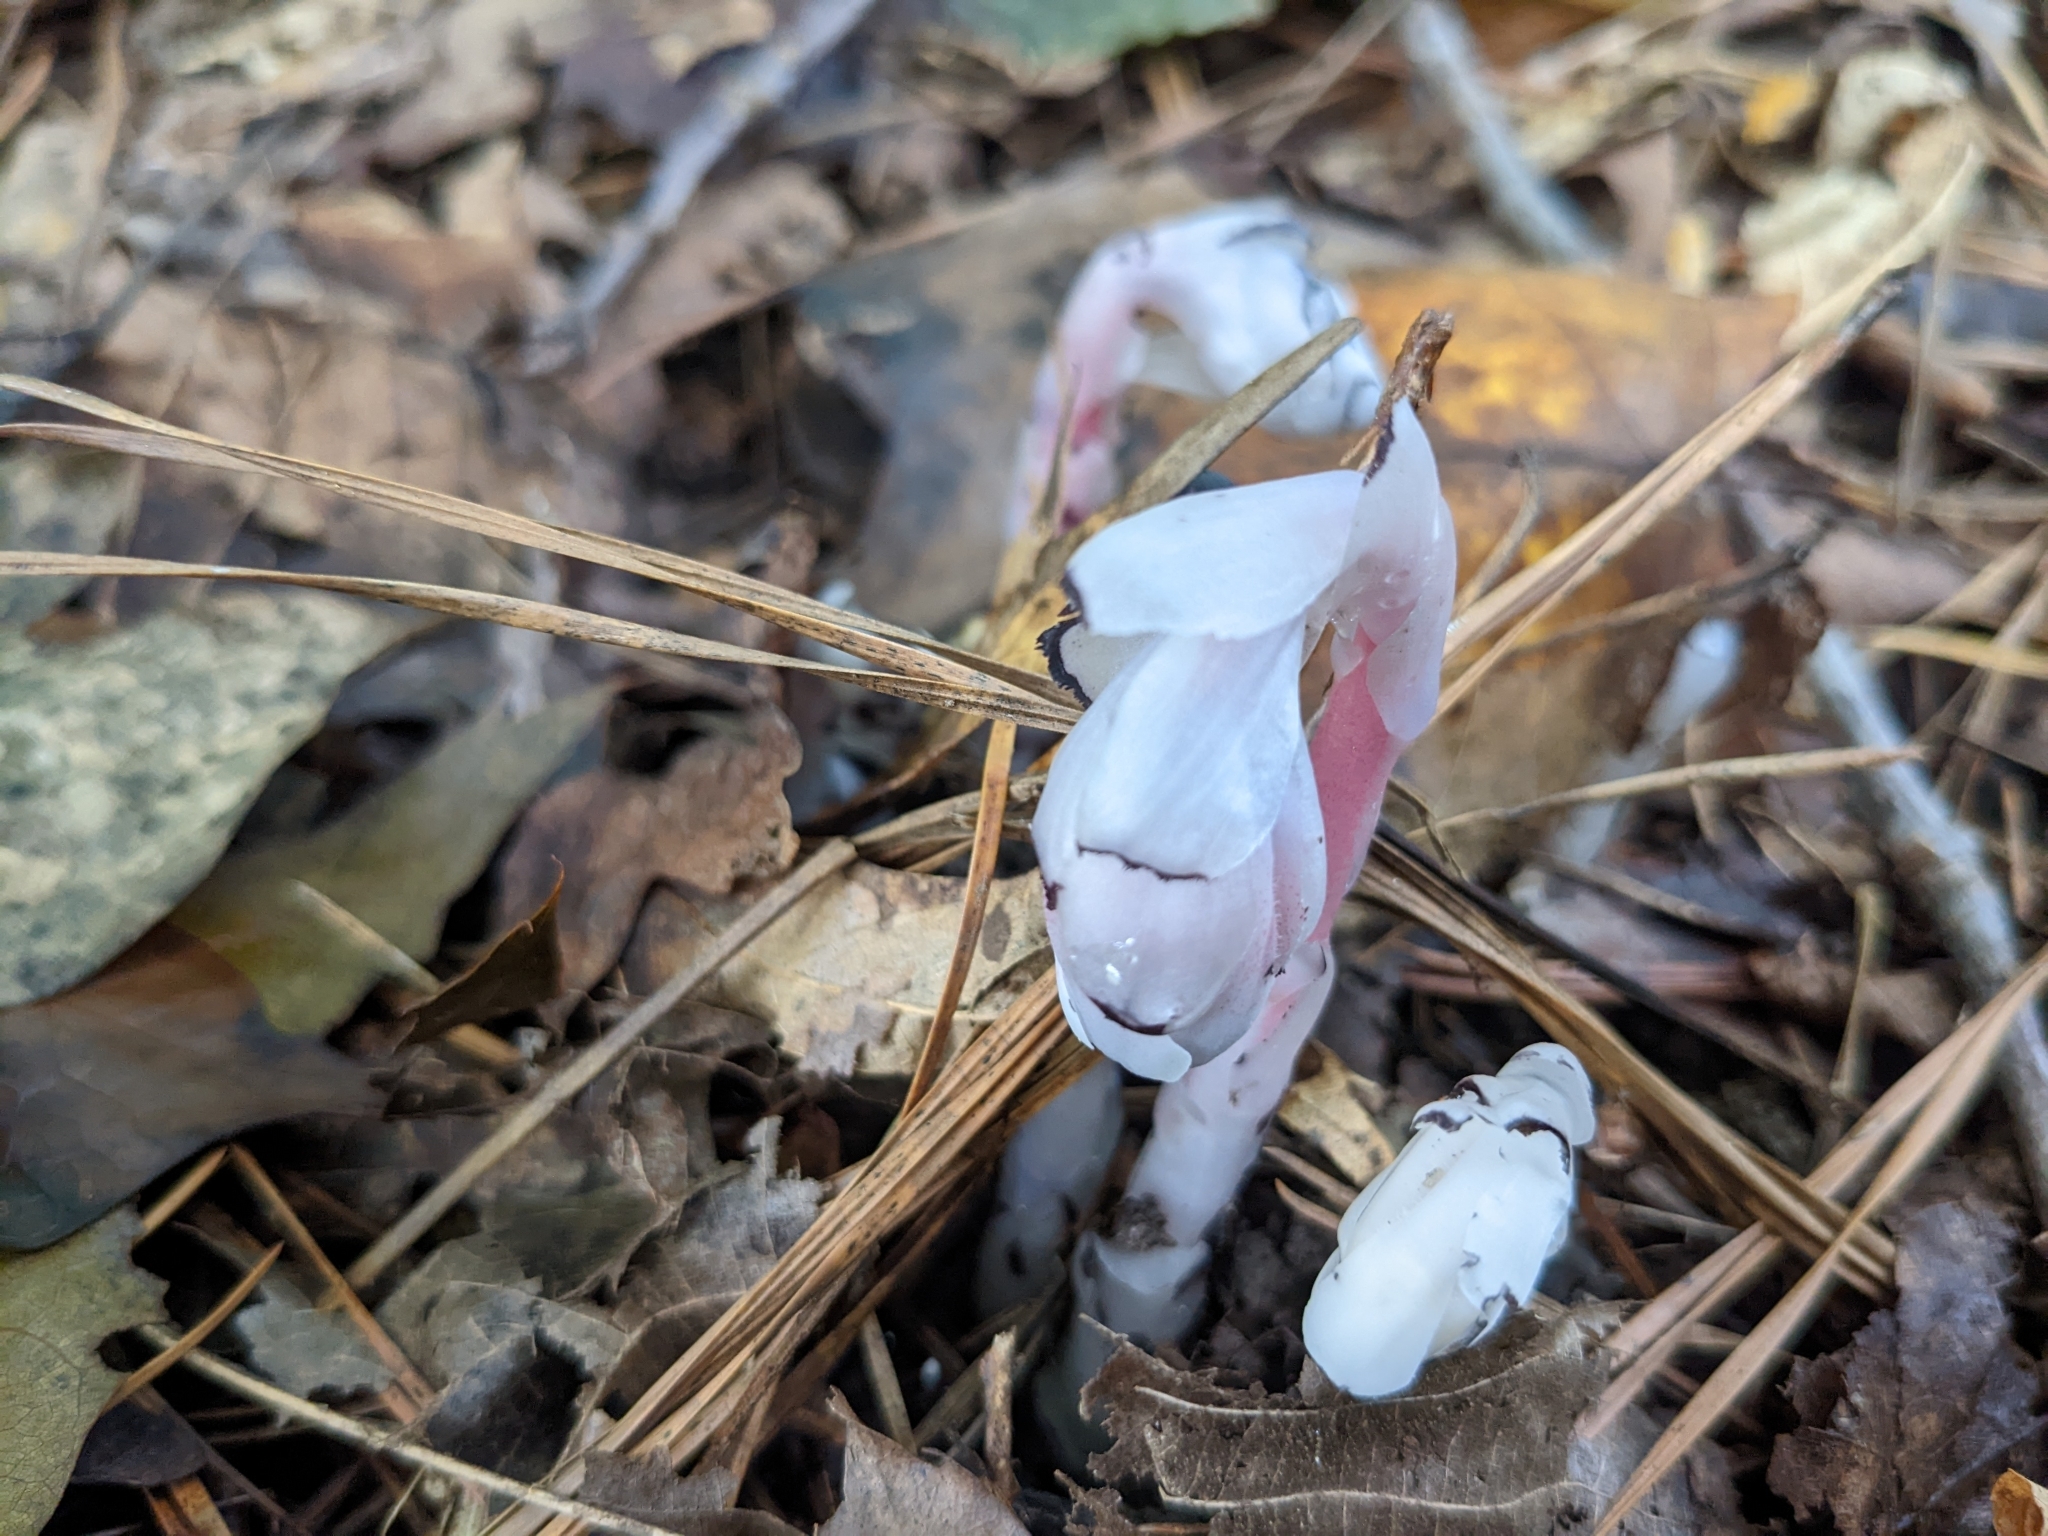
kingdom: Plantae
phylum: Tracheophyta
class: Magnoliopsida
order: Ericales
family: Ericaceae
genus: Monotropa
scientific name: Monotropa uniflora
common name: Convulsion root
